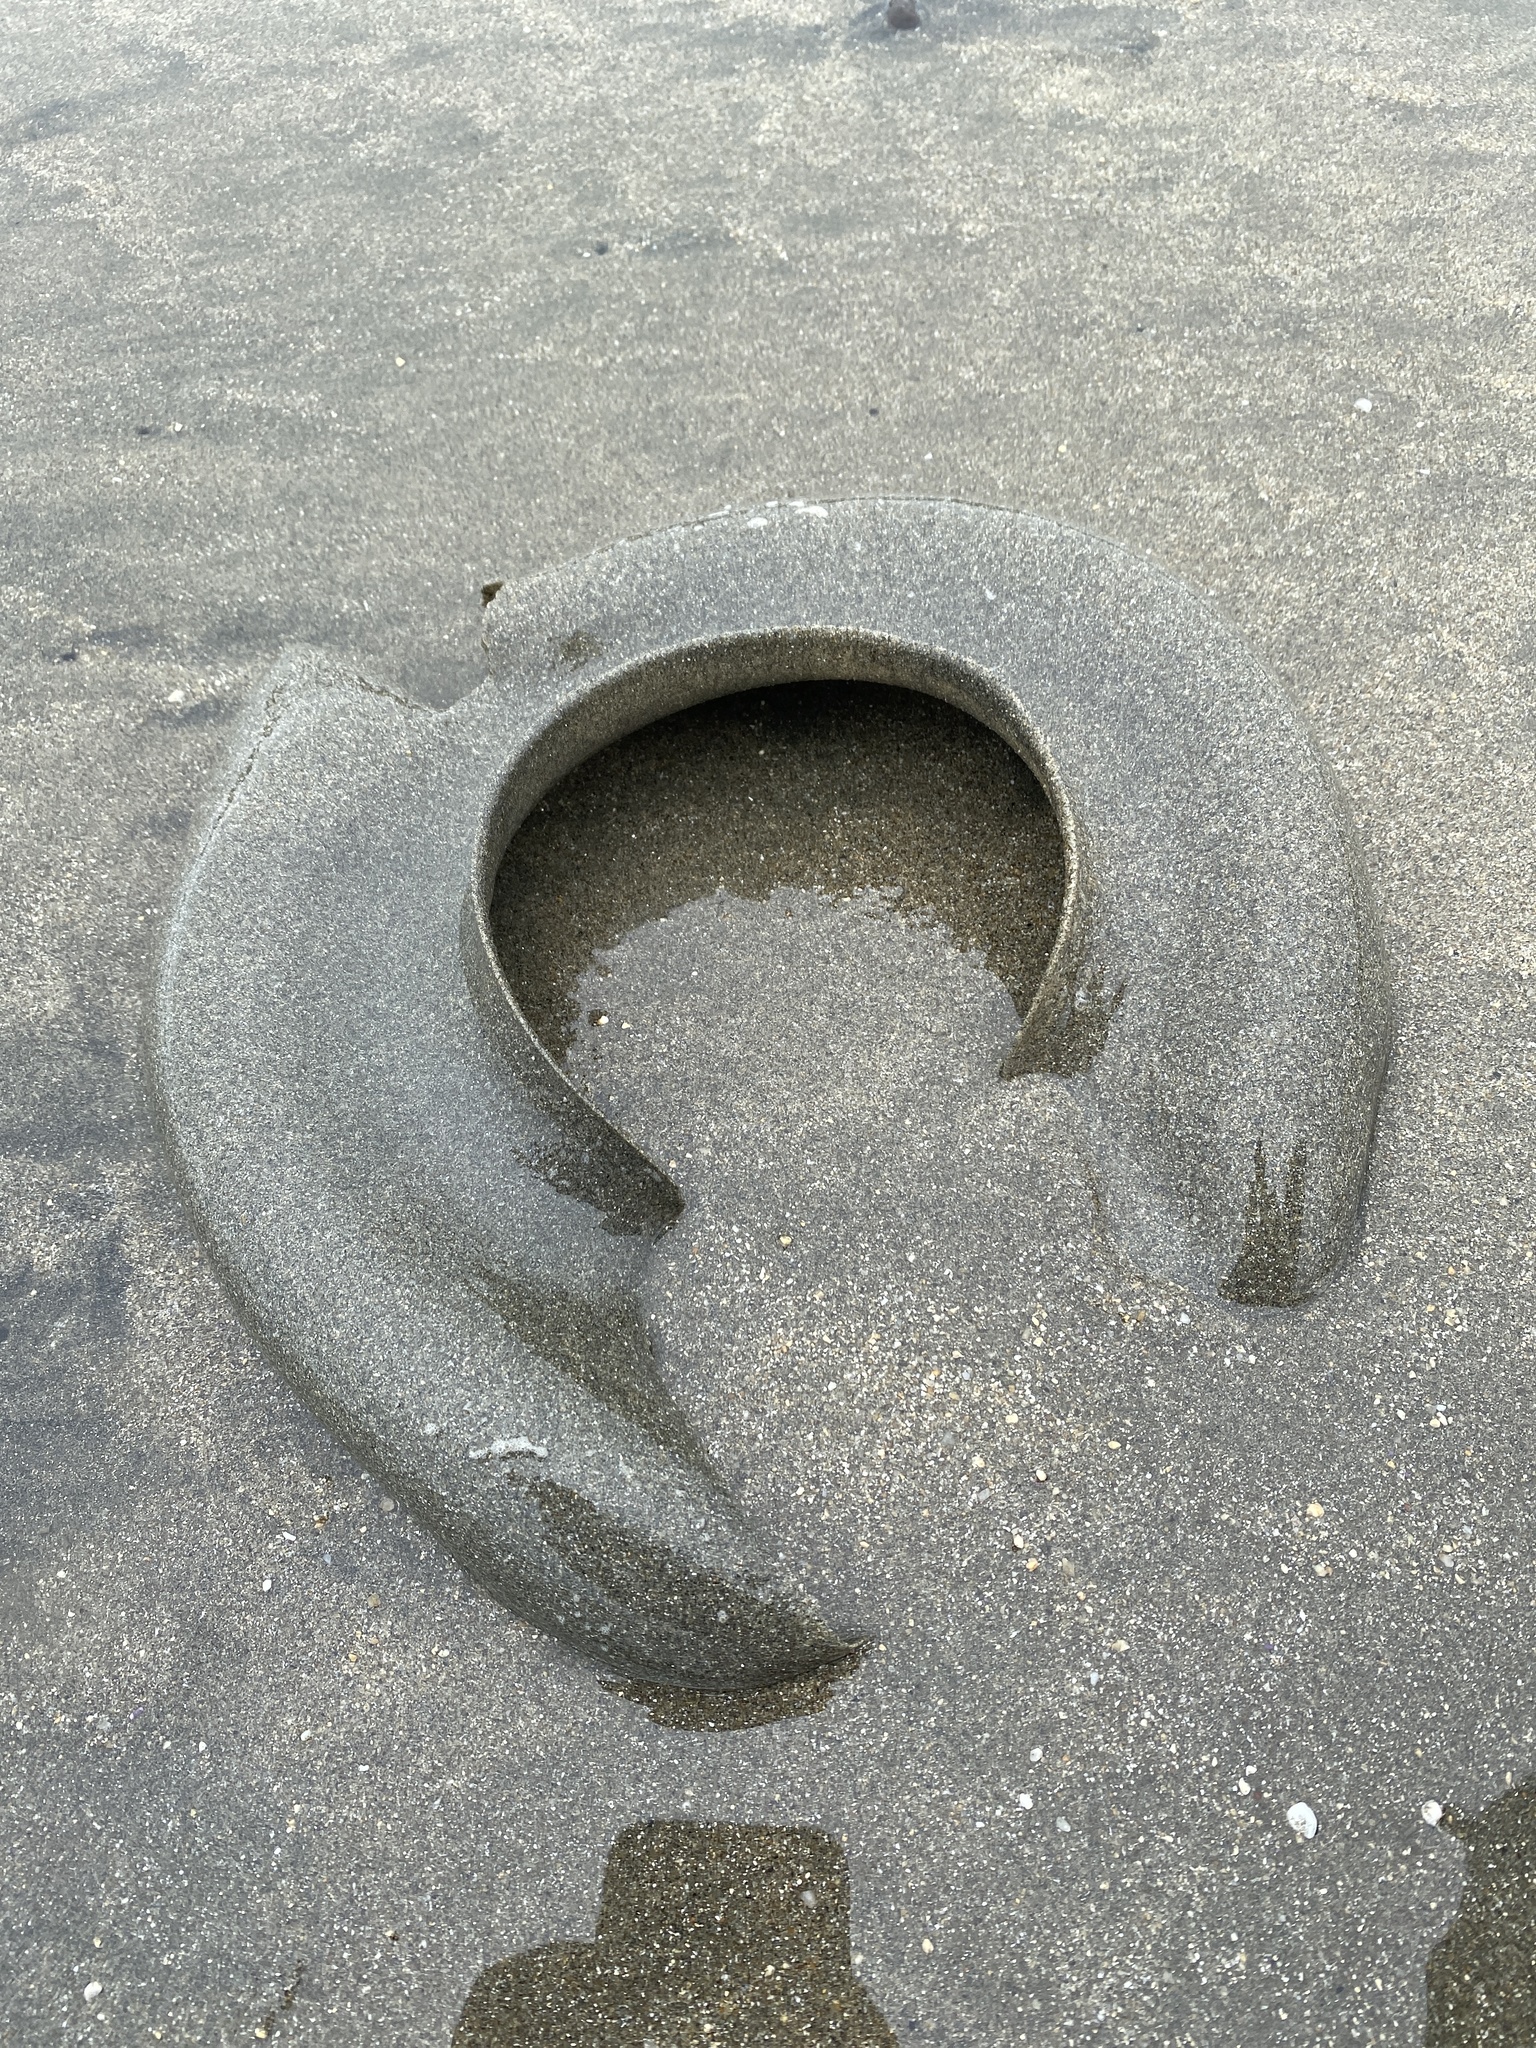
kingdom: Animalia
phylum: Mollusca
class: Gastropoda
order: Littorinimorpha
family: Naticidae
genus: Neverita
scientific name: Neverita lewisii
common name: Lewis' moonsnail
